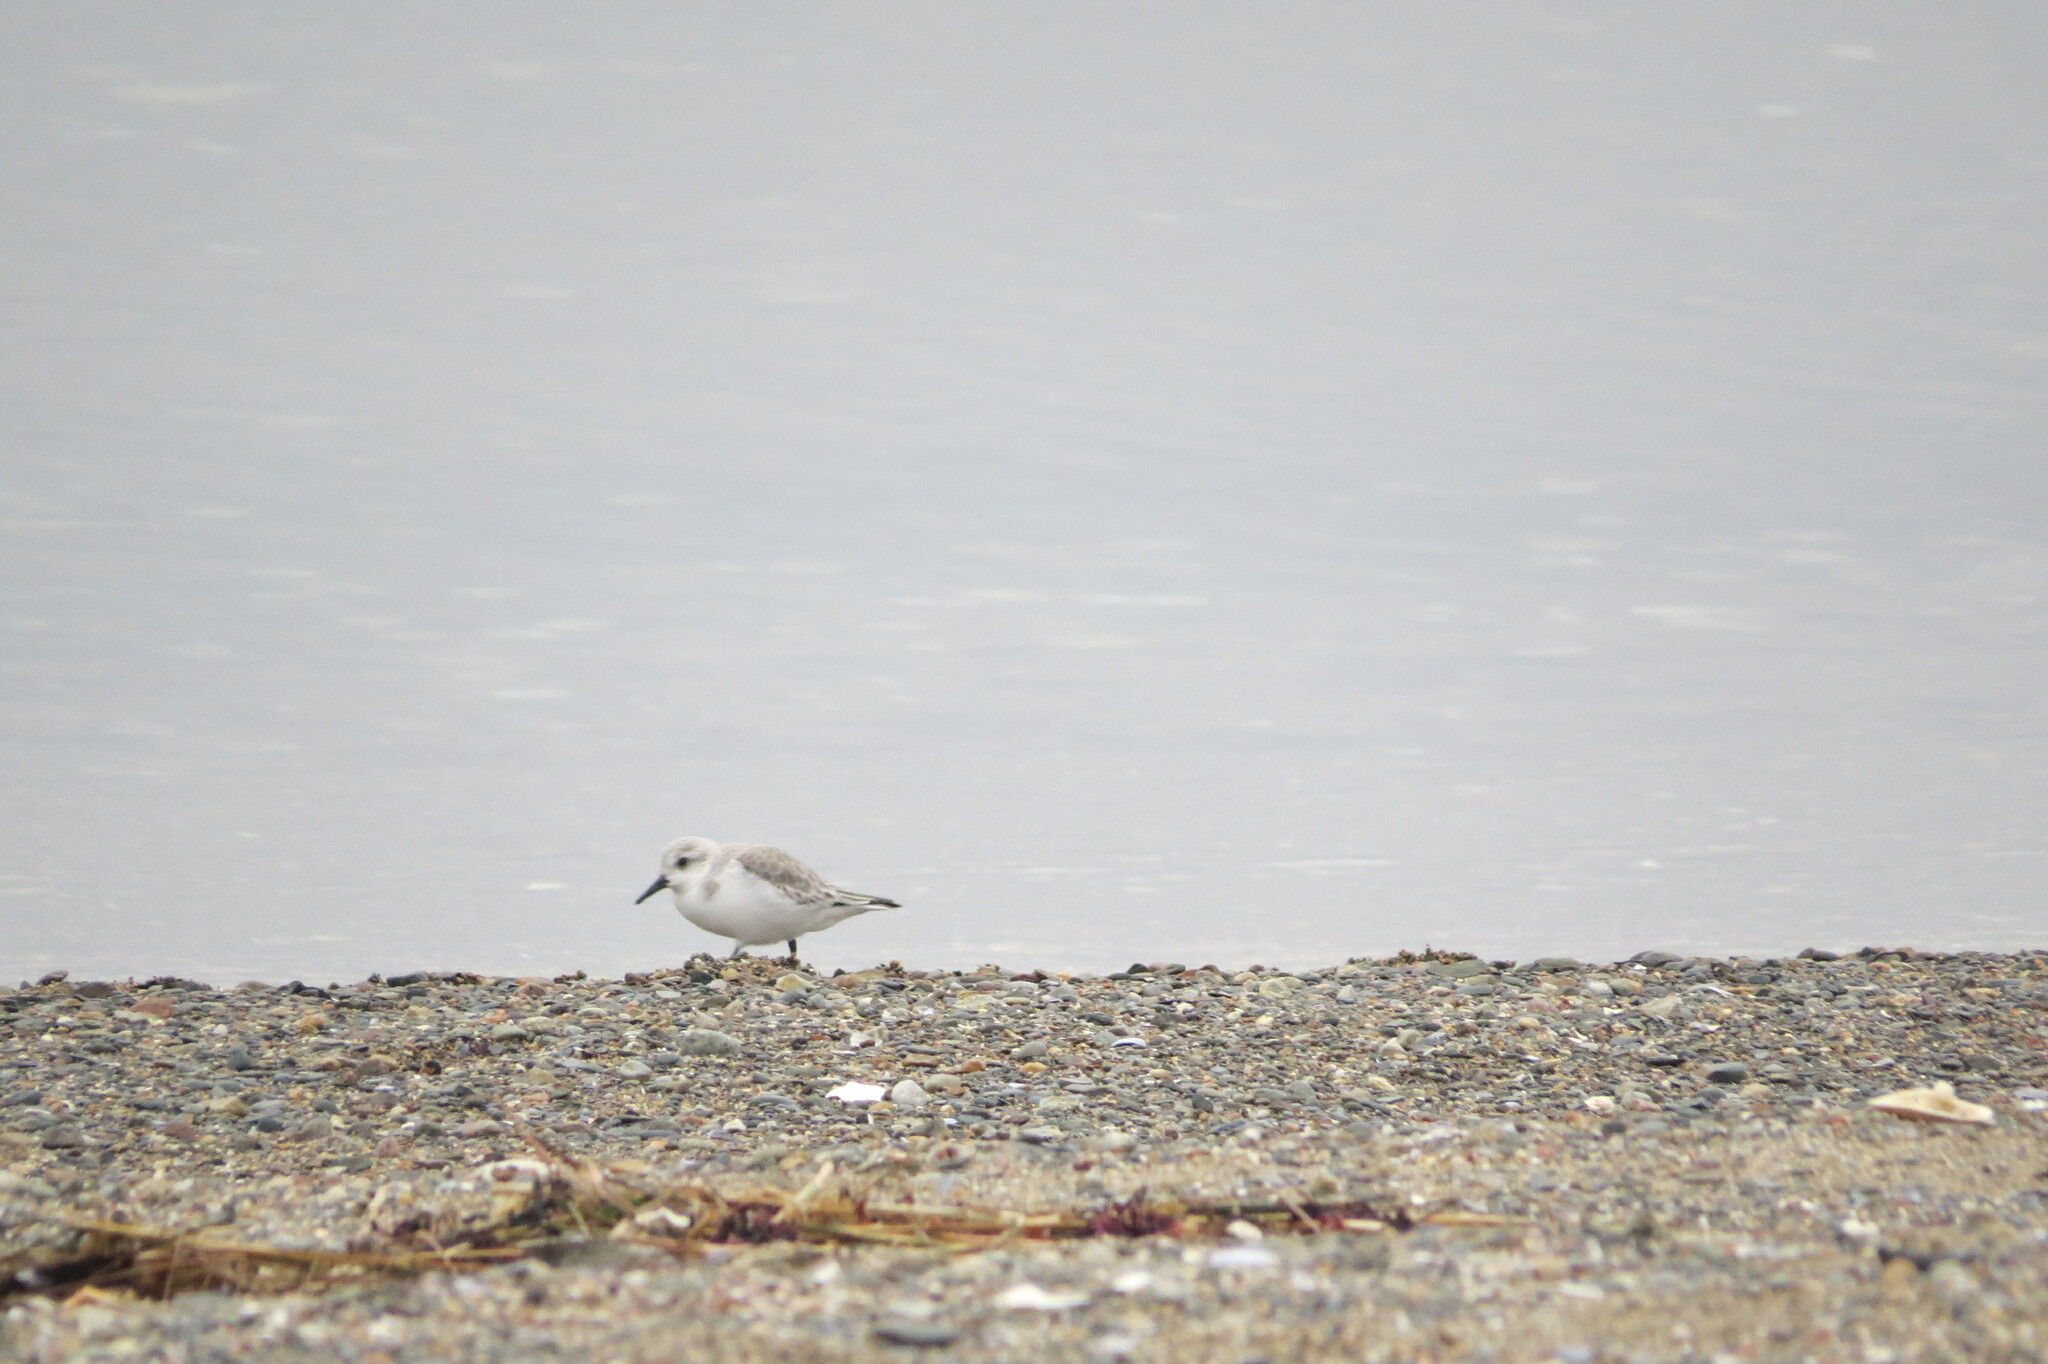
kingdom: Animalia
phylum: Chordata
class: Aves
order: Charadriiformes
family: Scolopacidae
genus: Calidris
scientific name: Calidris alba
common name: Sanderling
